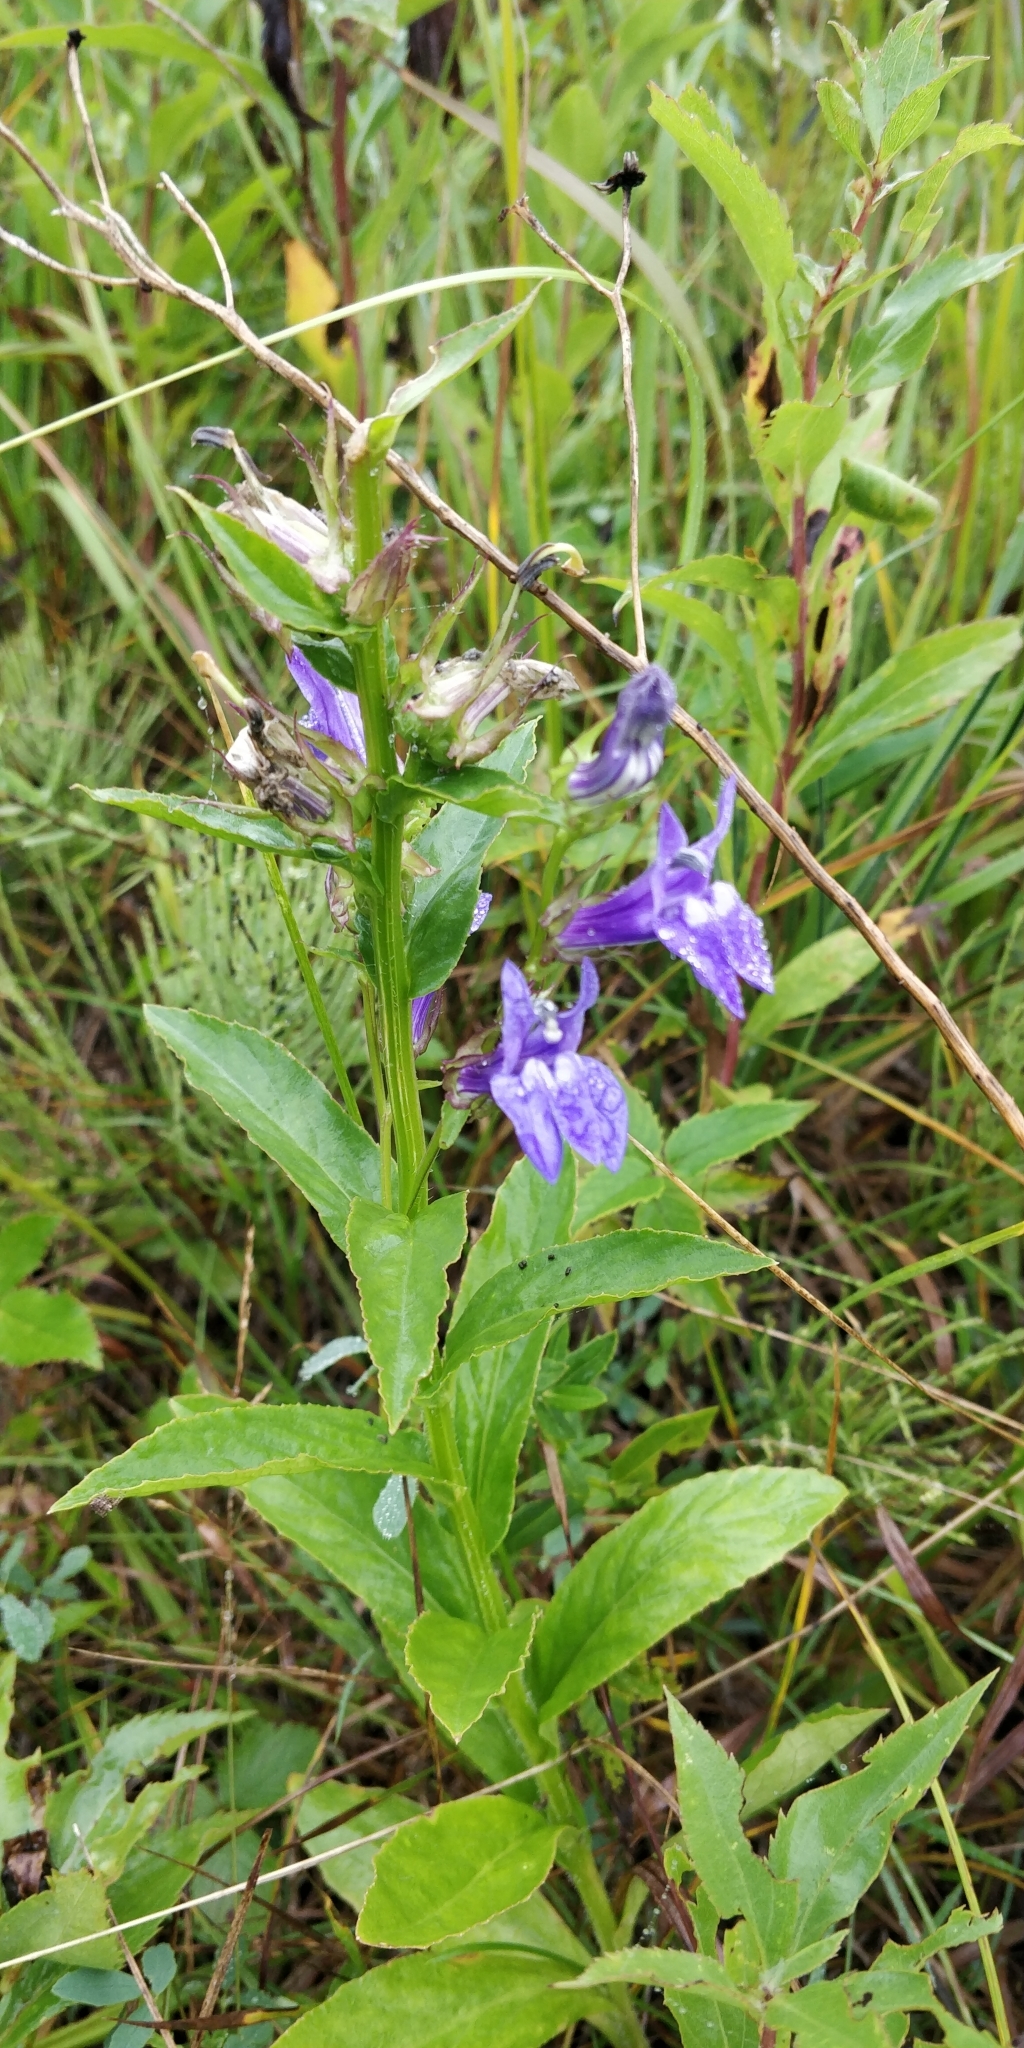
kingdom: Plantae
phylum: Tracheophyta
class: Magnoliopsida
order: Asterales
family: Campanulaceae
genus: Lobelia
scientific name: Lobelia siphilitica
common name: Great lobelia
